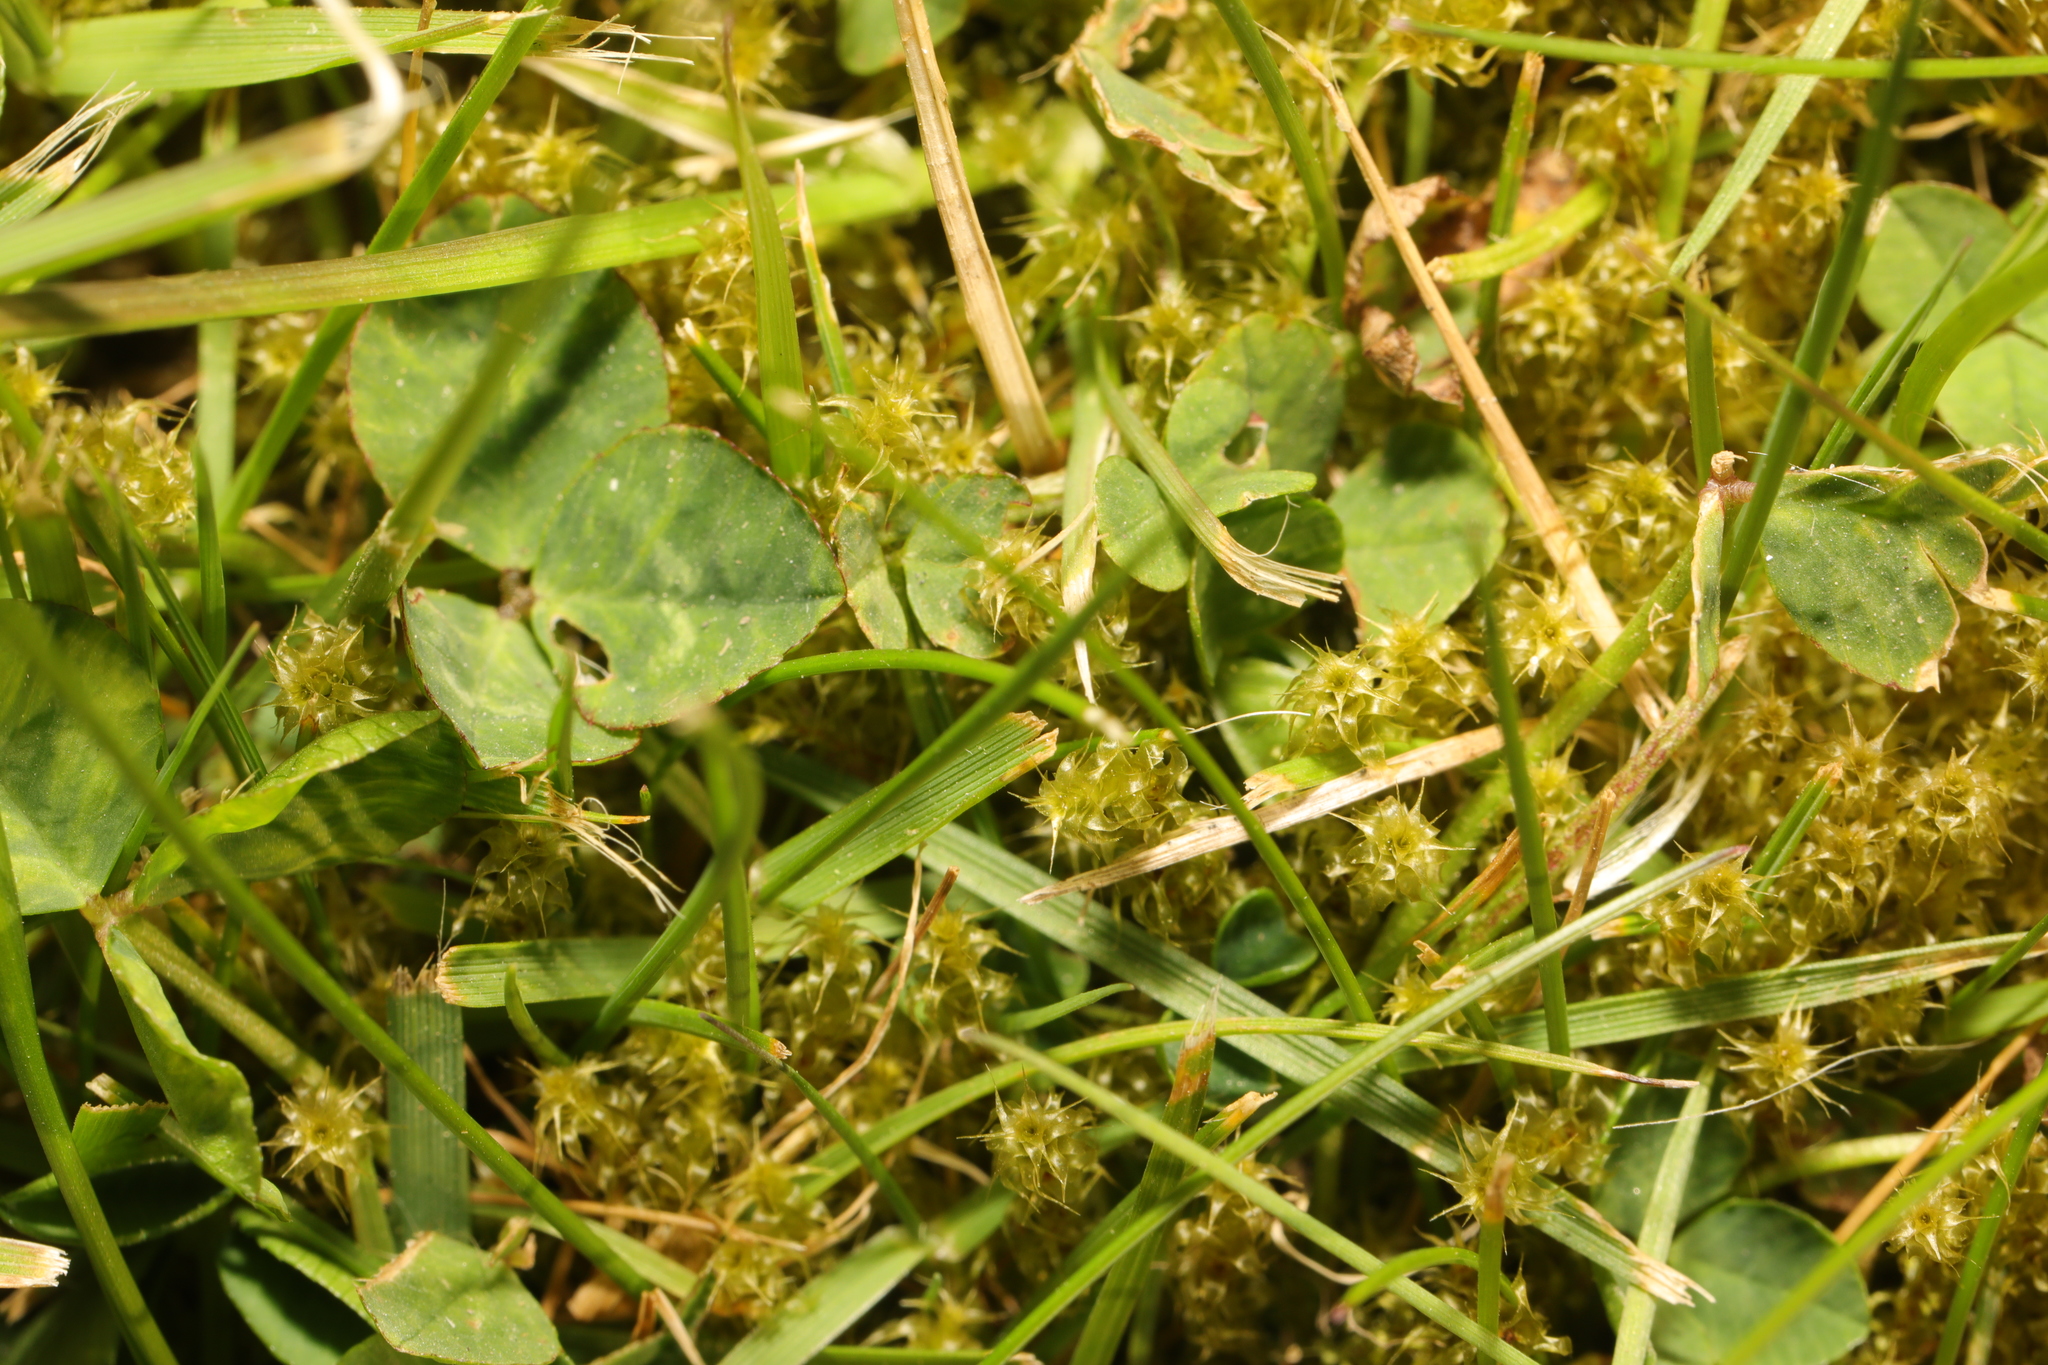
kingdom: Plantae
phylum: Bryophyta
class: Bryopsida
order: Hypnales
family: Hylocomiaceae
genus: Rhytidiadelphus
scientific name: Rhytidiadelphus squarrosus
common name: Springy turf-moss
